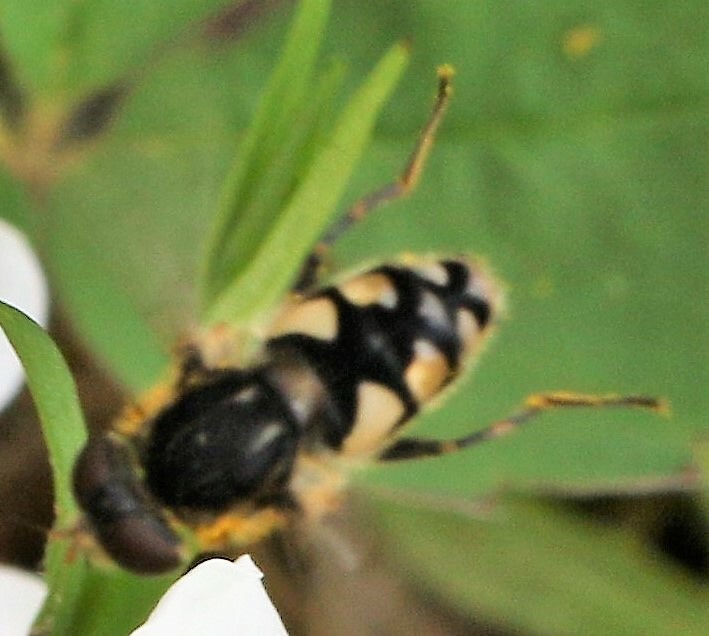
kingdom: Animalia
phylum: Arthropoda
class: Insecta
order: Diptera
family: Syrphidae
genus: Parhelophilus
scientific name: Parhelophilus rex
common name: Dusky bog fly
